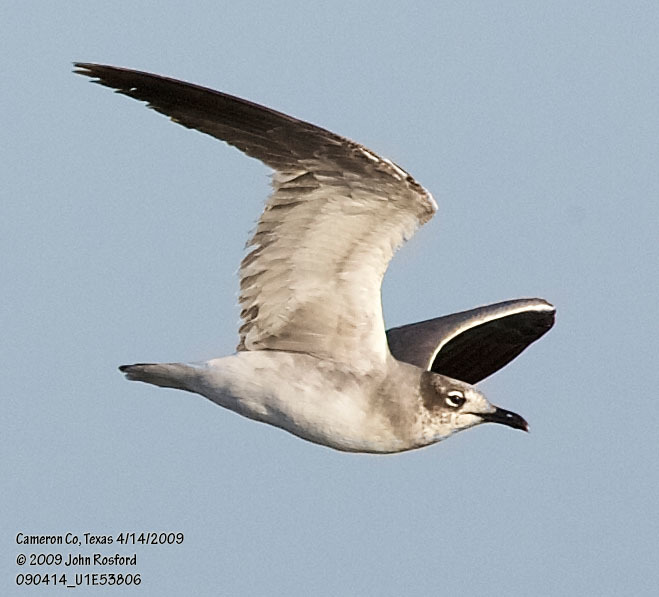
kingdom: Animalia
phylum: Chordata
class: Aves
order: Charadriiformes
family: Laridae
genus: Leucophaeus
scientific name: Leucophaeus atricilla
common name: Laughing gull
